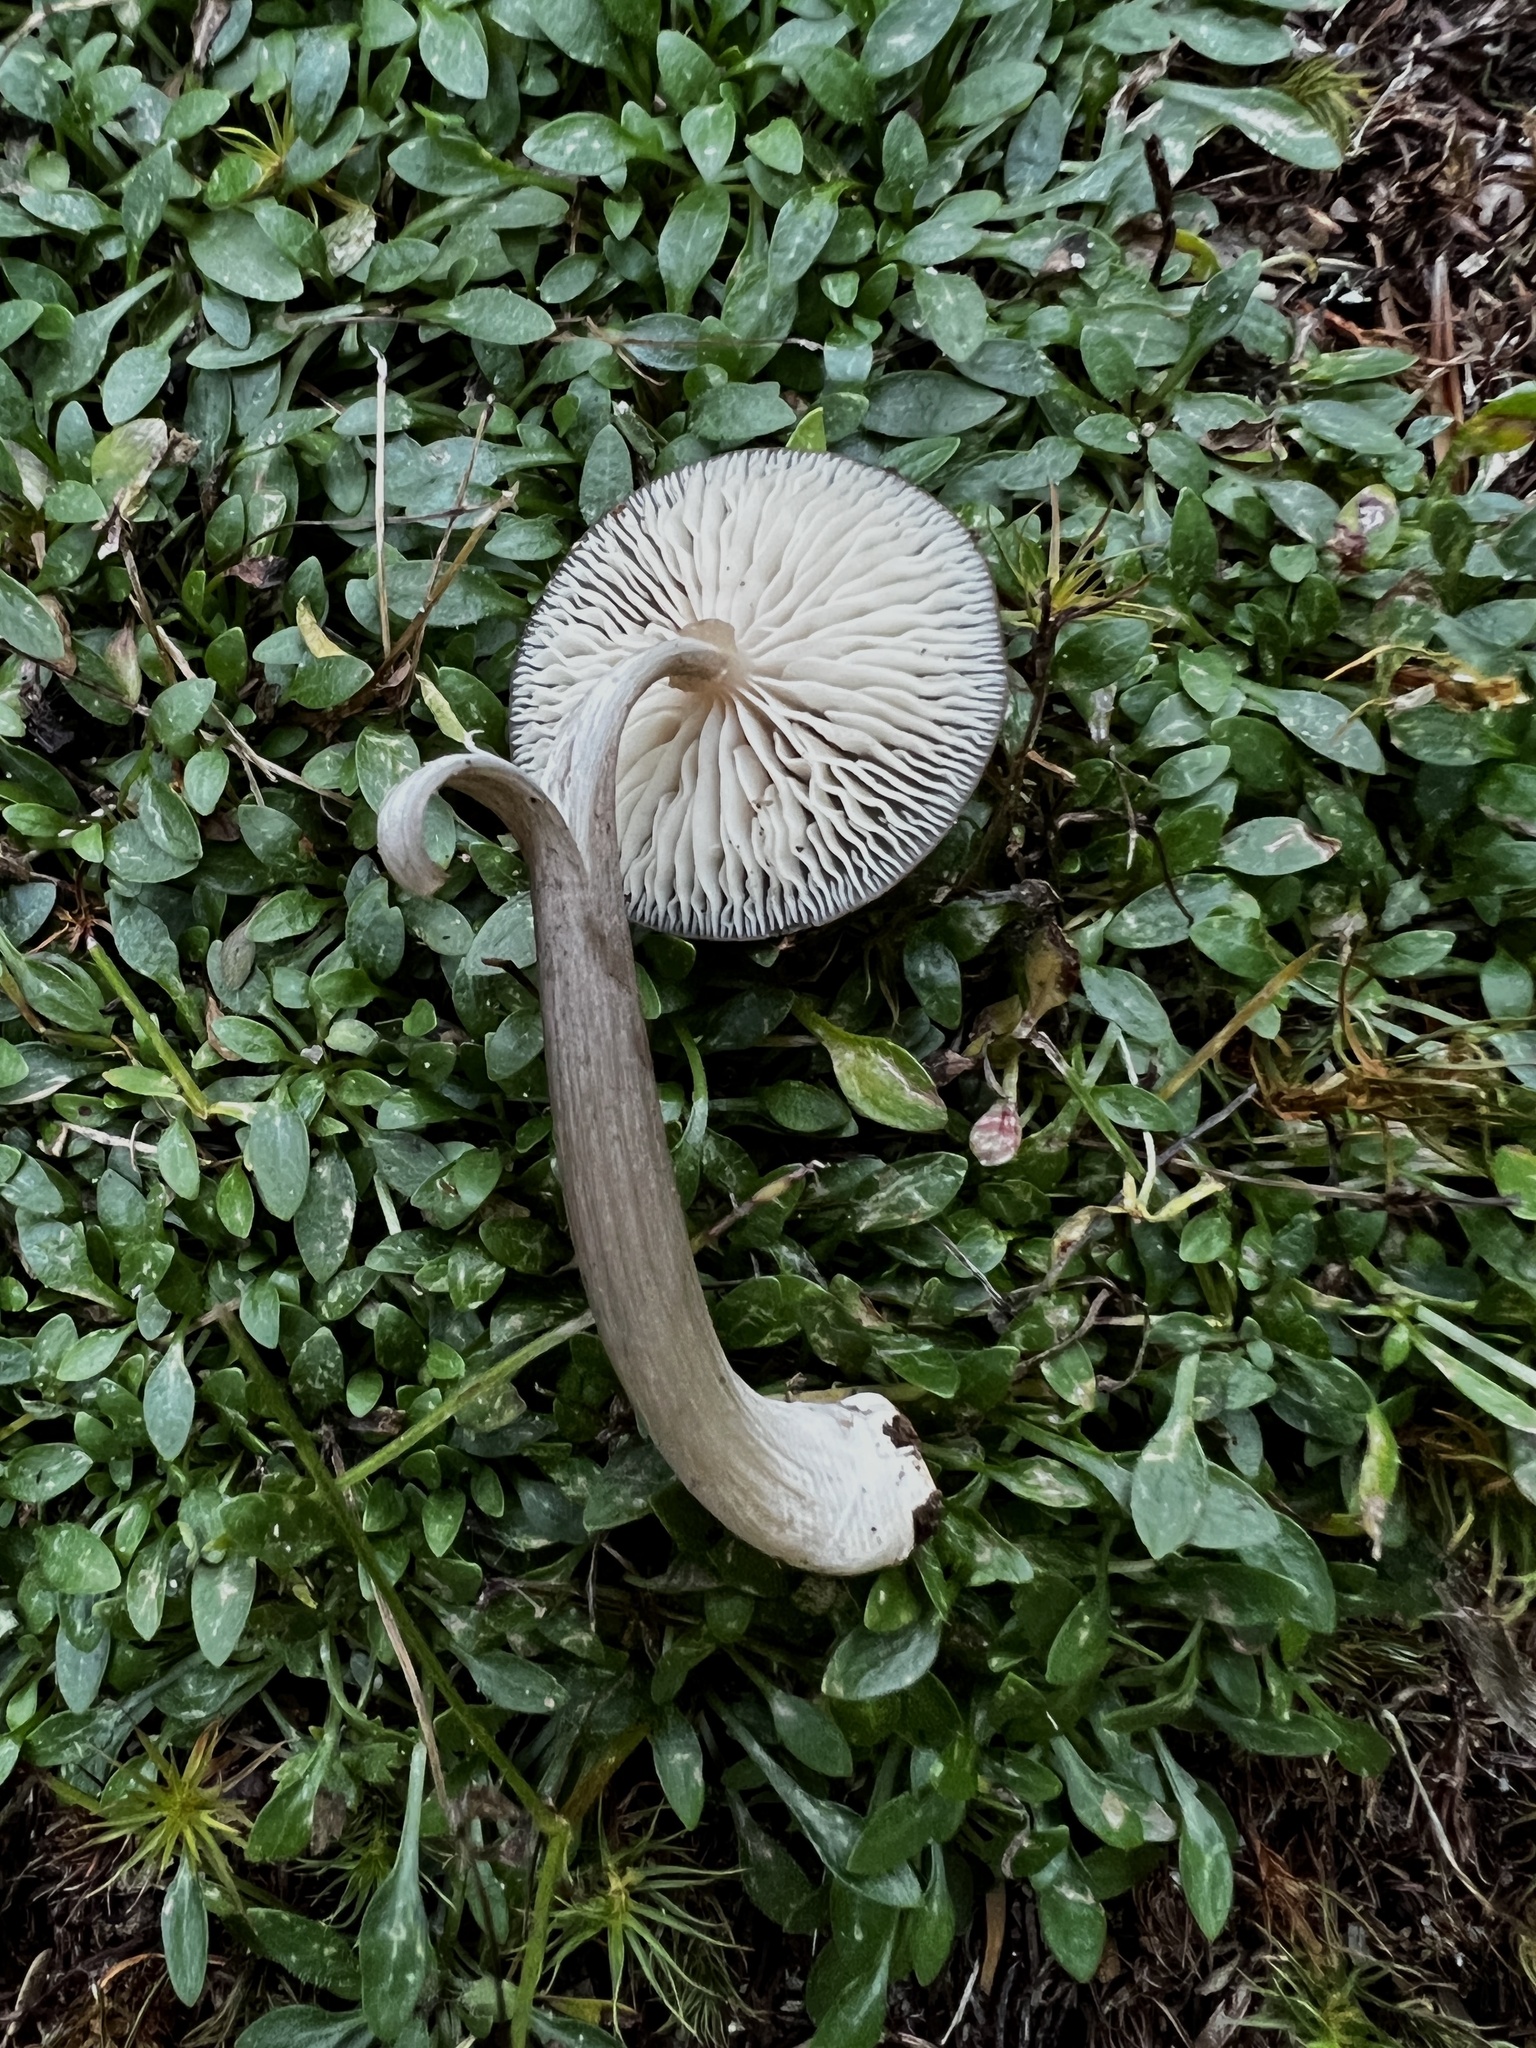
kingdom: Fungi
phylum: Basidiomycota
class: Agaricomycetes
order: Agaricales
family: Entolomataceae
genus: Entoloma
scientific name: Entoloma fuscosquamosum
